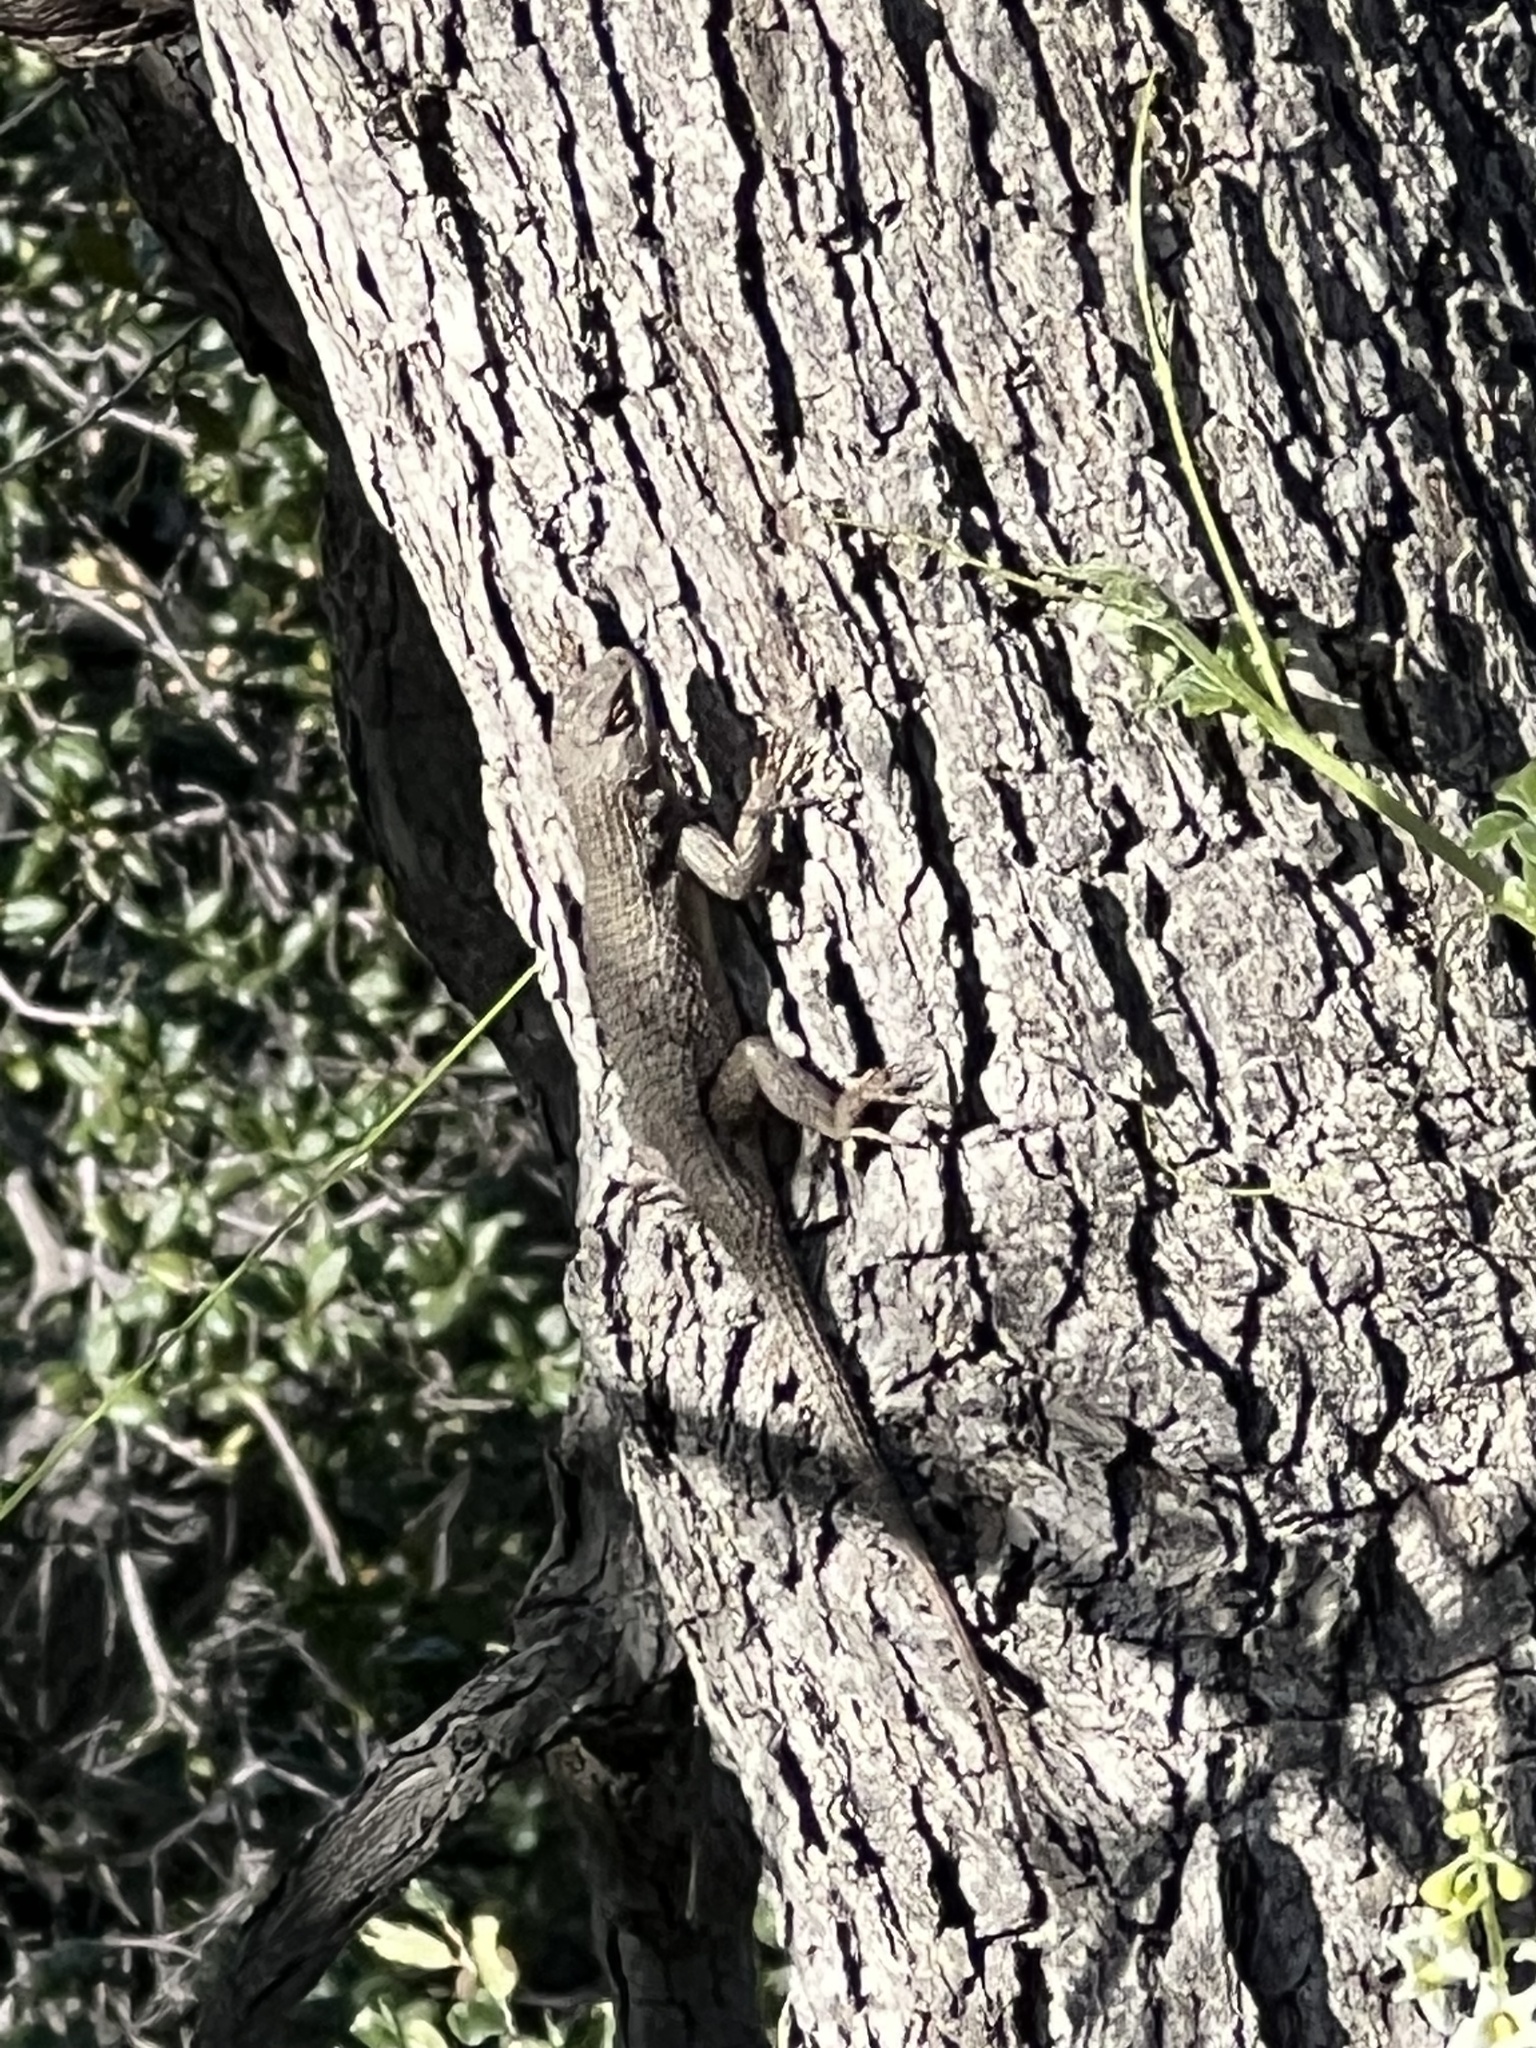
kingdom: Animalia
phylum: Chordata
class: Squamata
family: Phrynosomatidae
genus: Sceloporus
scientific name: Sceloporus occidentalis
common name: Western fence lizard
